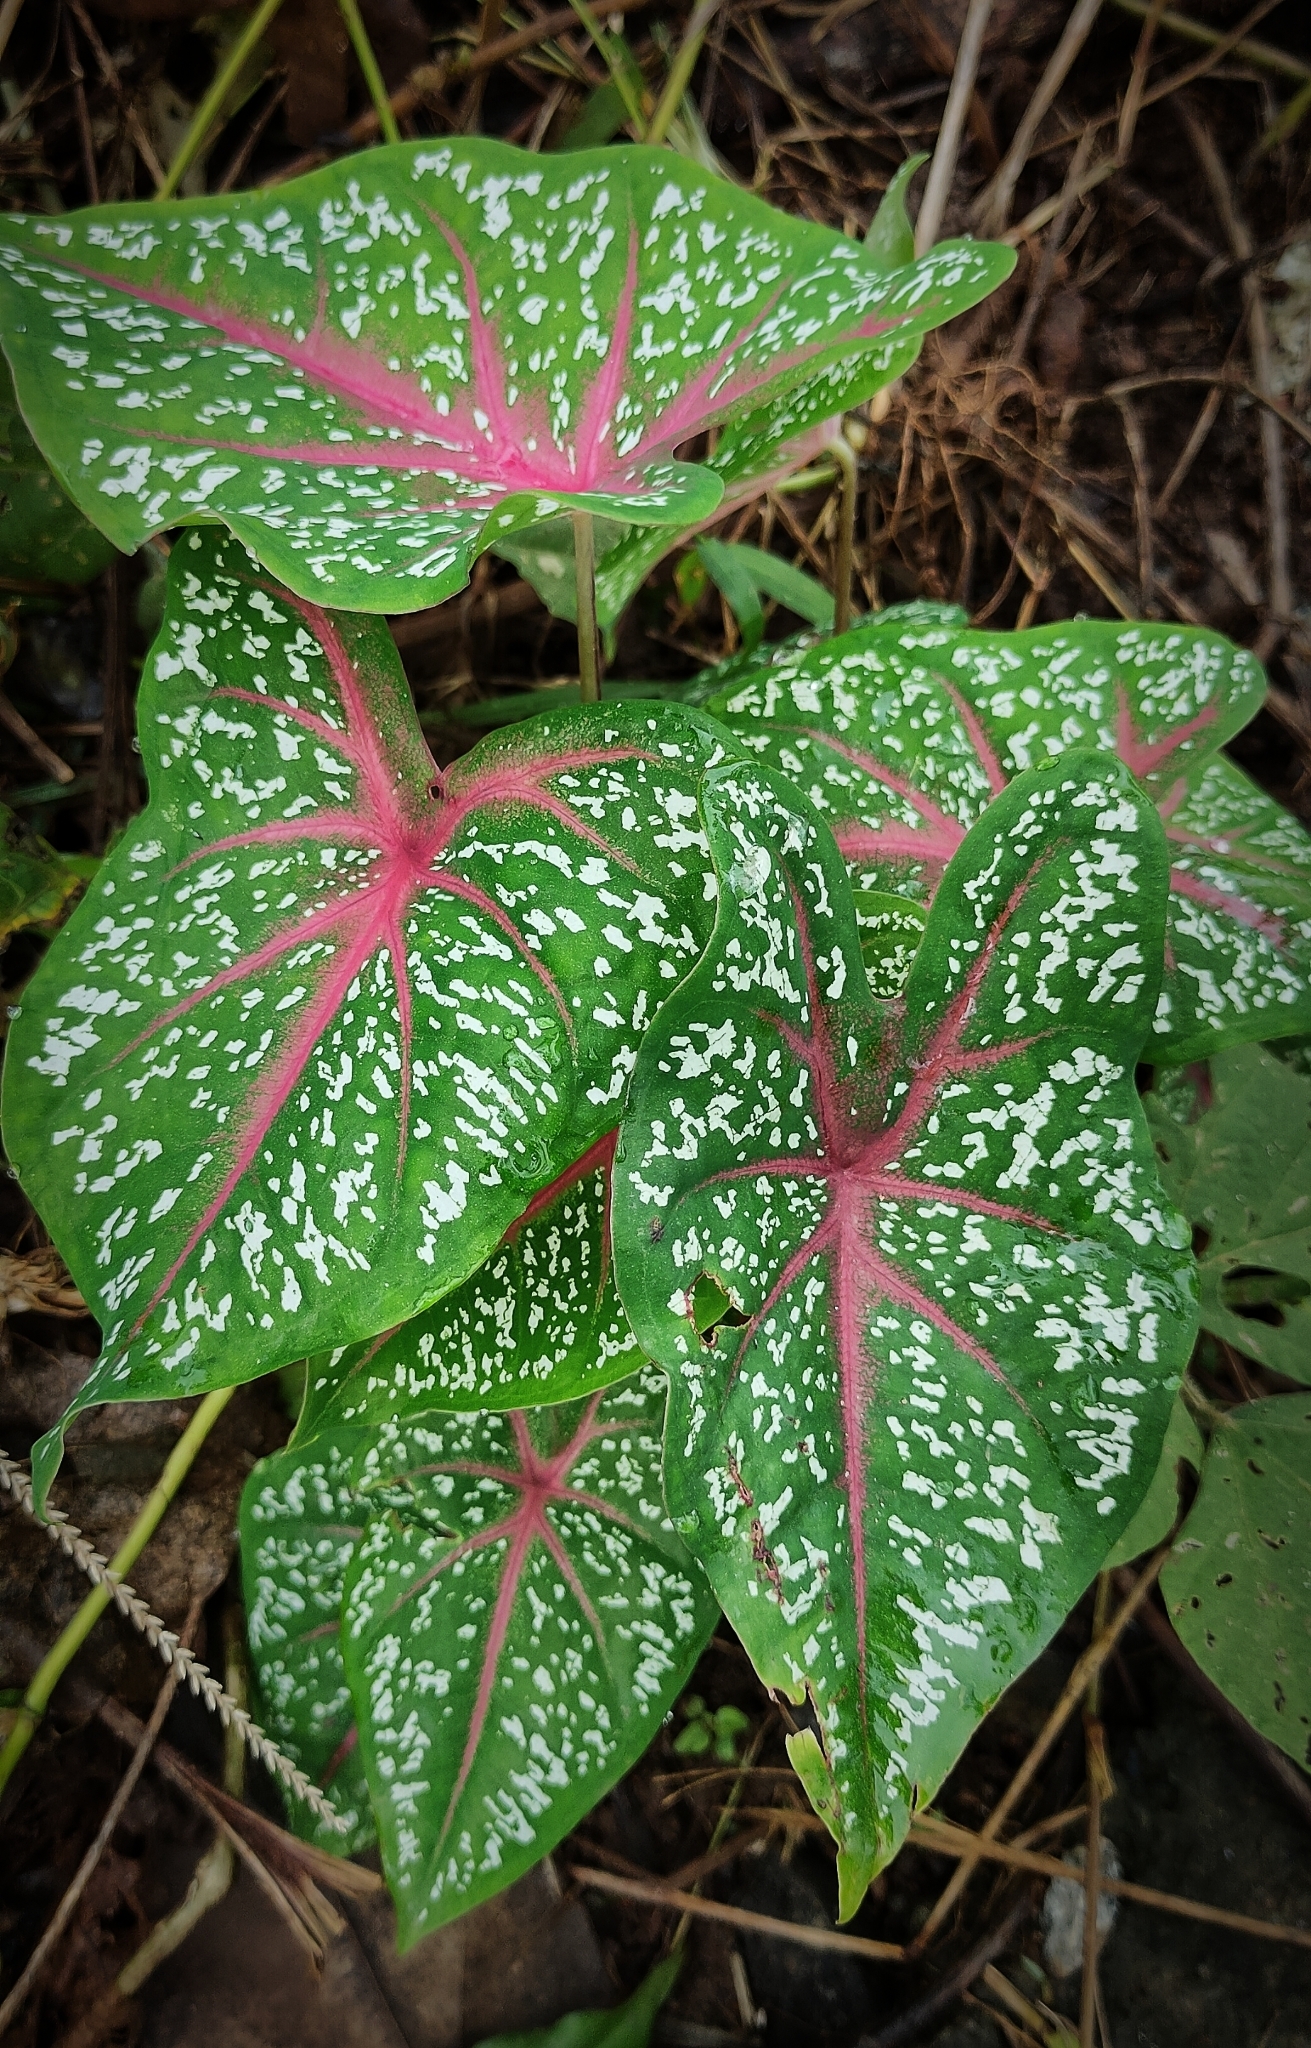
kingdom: Plantae
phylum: Tracheophyta
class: Liliopsida
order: Alismatales
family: Araceae
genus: Caladium
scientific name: Caladium bicolor
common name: Artist's pallet
